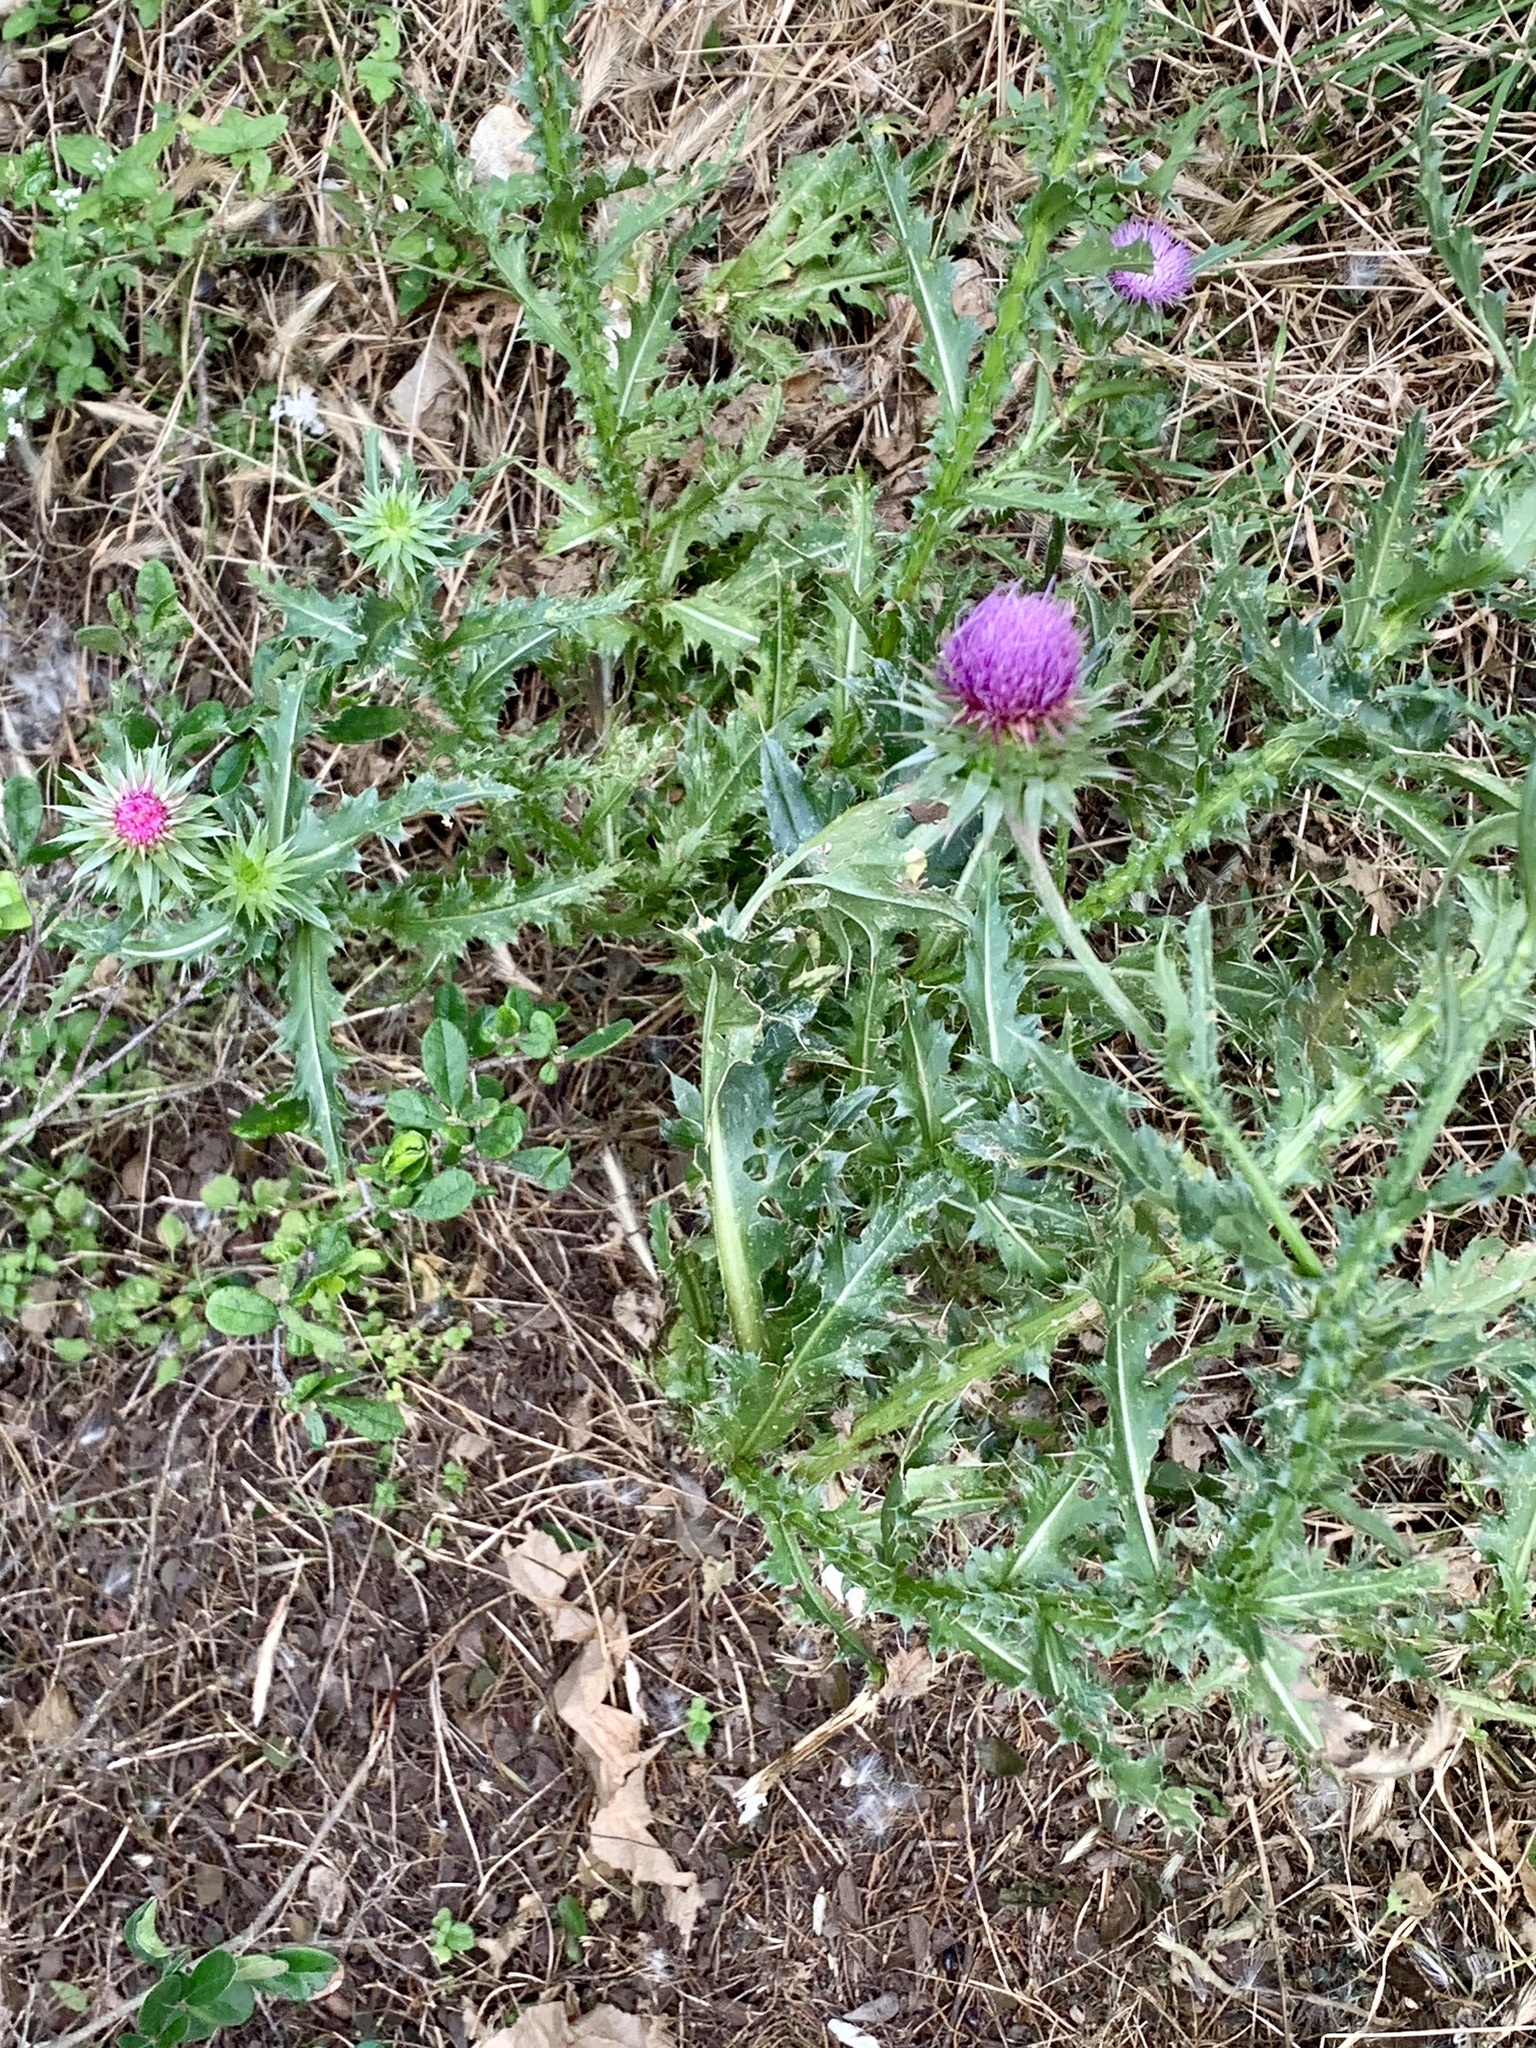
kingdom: Plantae
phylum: Tracheophyta
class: Magnoliopsida
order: Asterales
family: Asteraceae
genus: Carduus
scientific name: Carduus nutans
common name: Musk thistle
